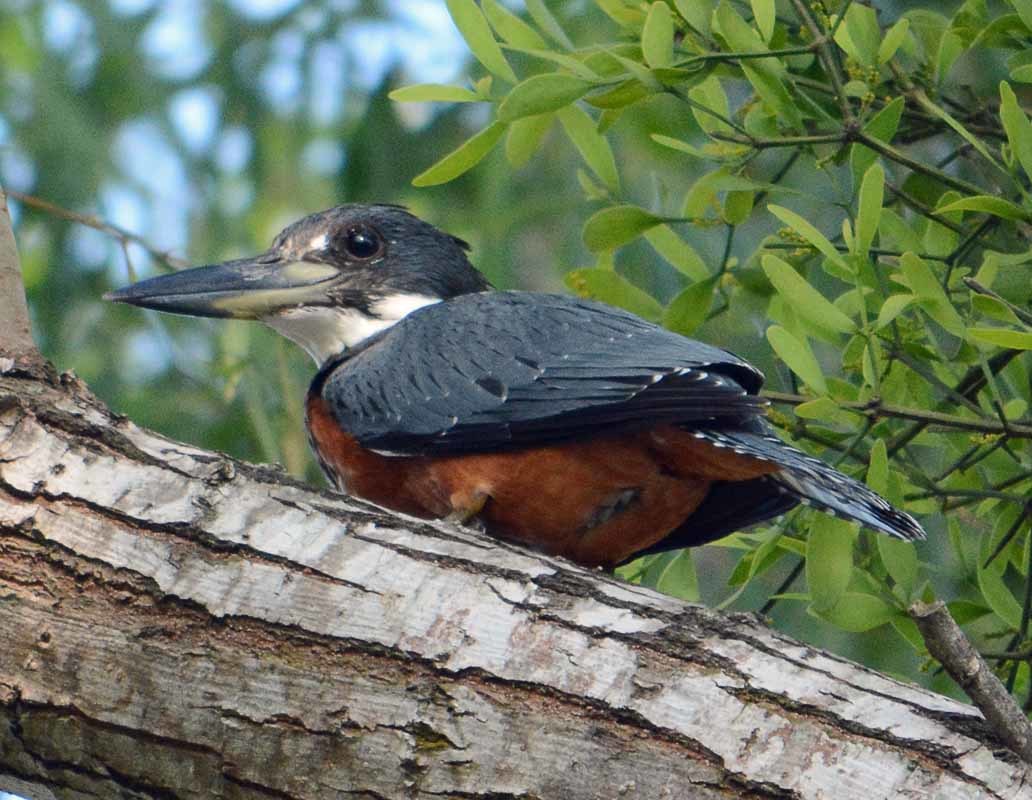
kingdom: Animalia
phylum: Chordata
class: Aves
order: Coraciiformes
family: Alcedinidae
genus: Megaceryle
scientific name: Megaceryle torquata
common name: Ringed kingfisher
